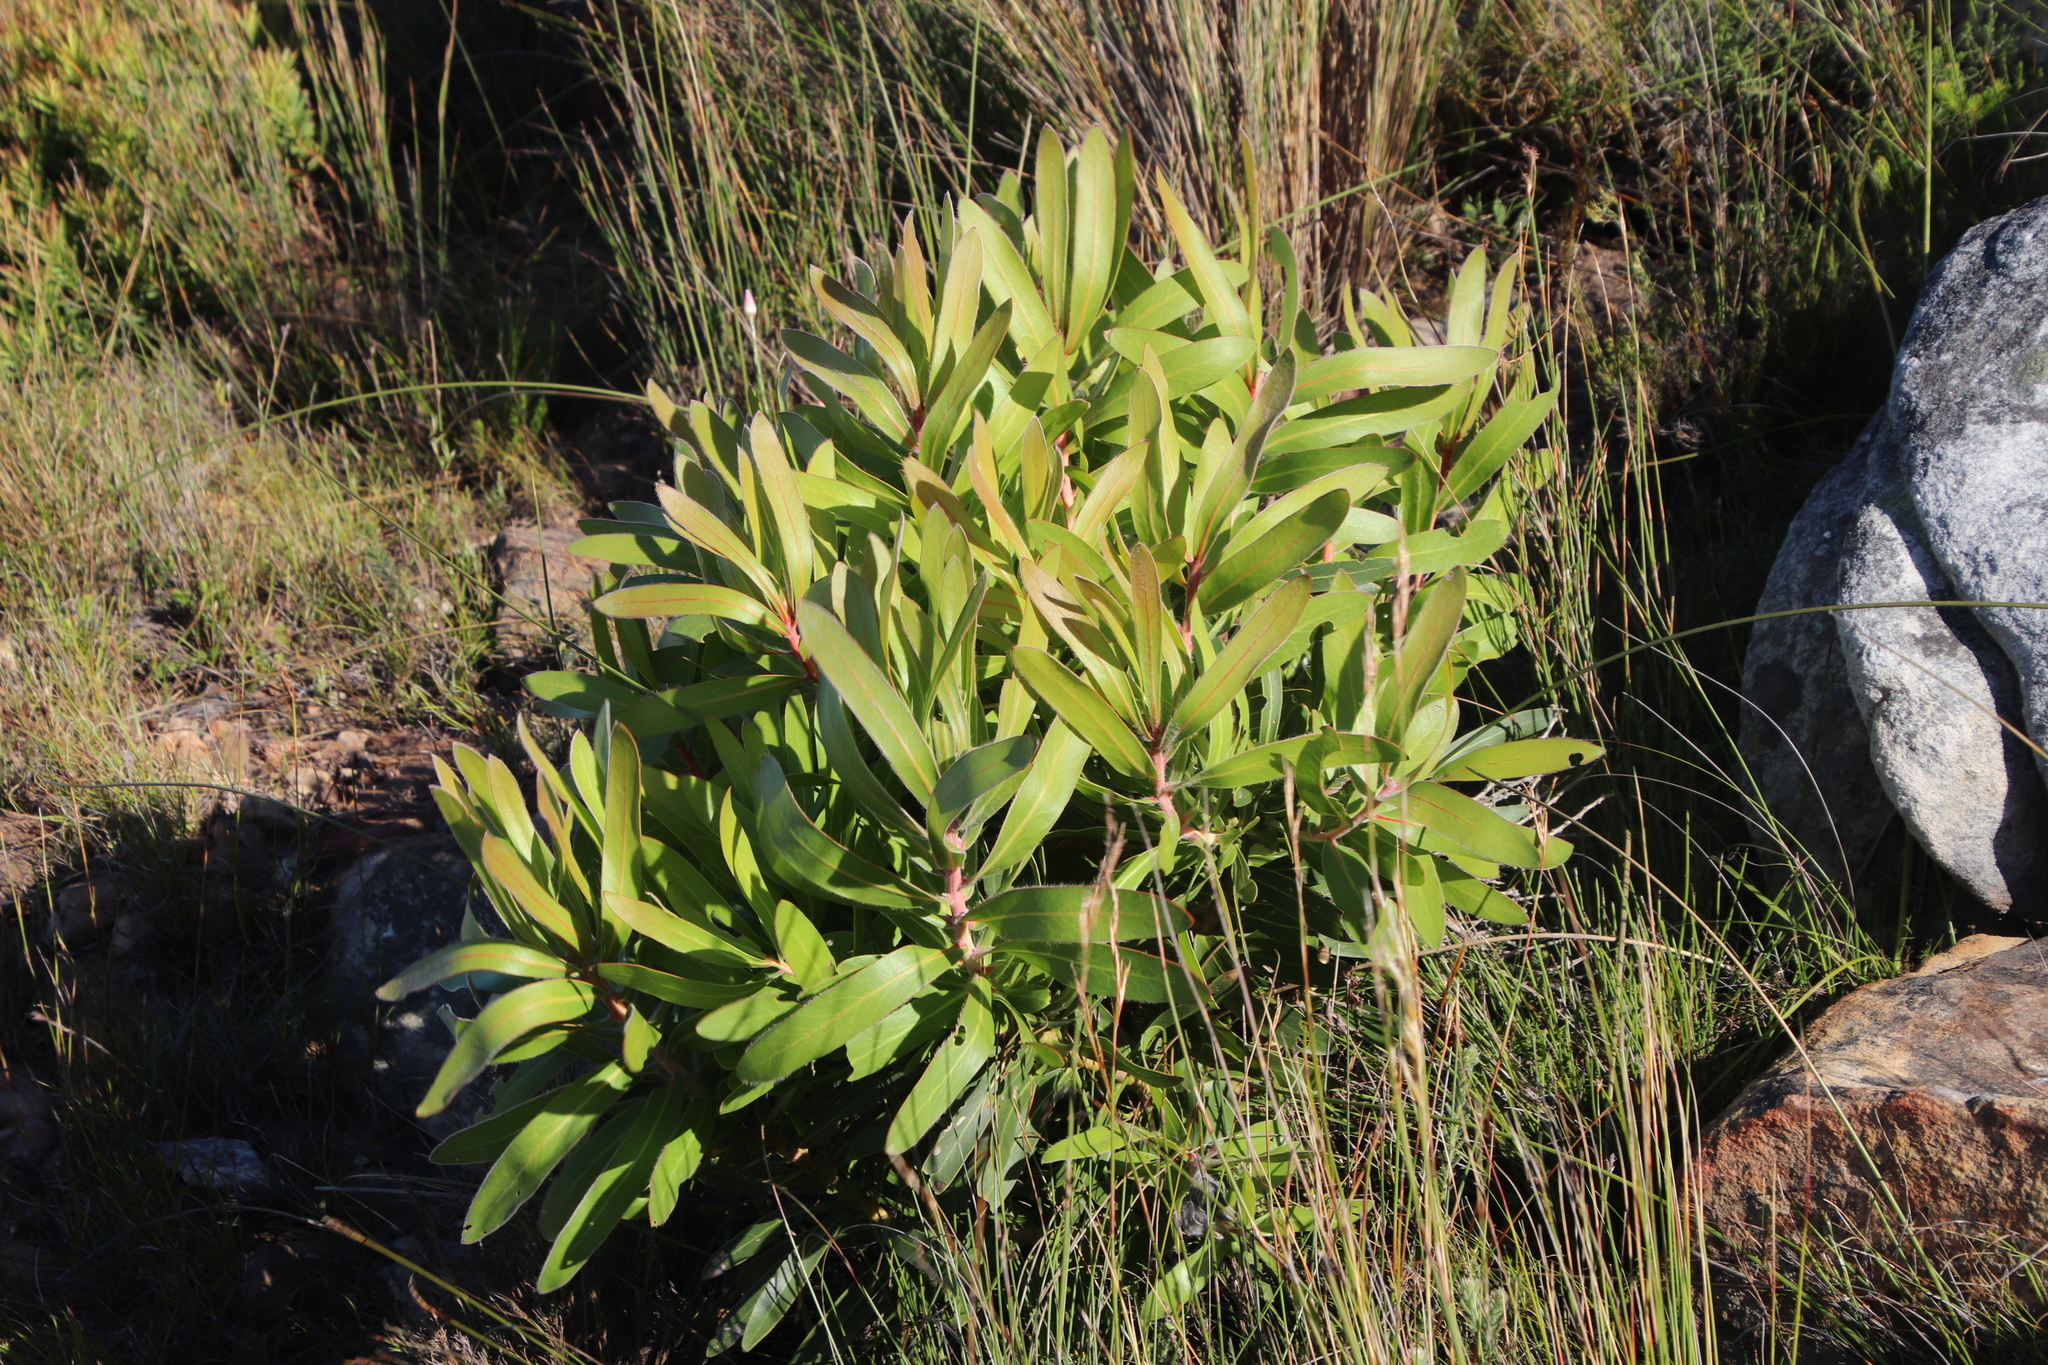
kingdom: Plantae
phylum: Tracheophyta
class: Magnoliopsida
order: Proteales
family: Proteaceae
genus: Protea
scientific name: Protea lepidocarpodendron
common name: Black-bearded protea
